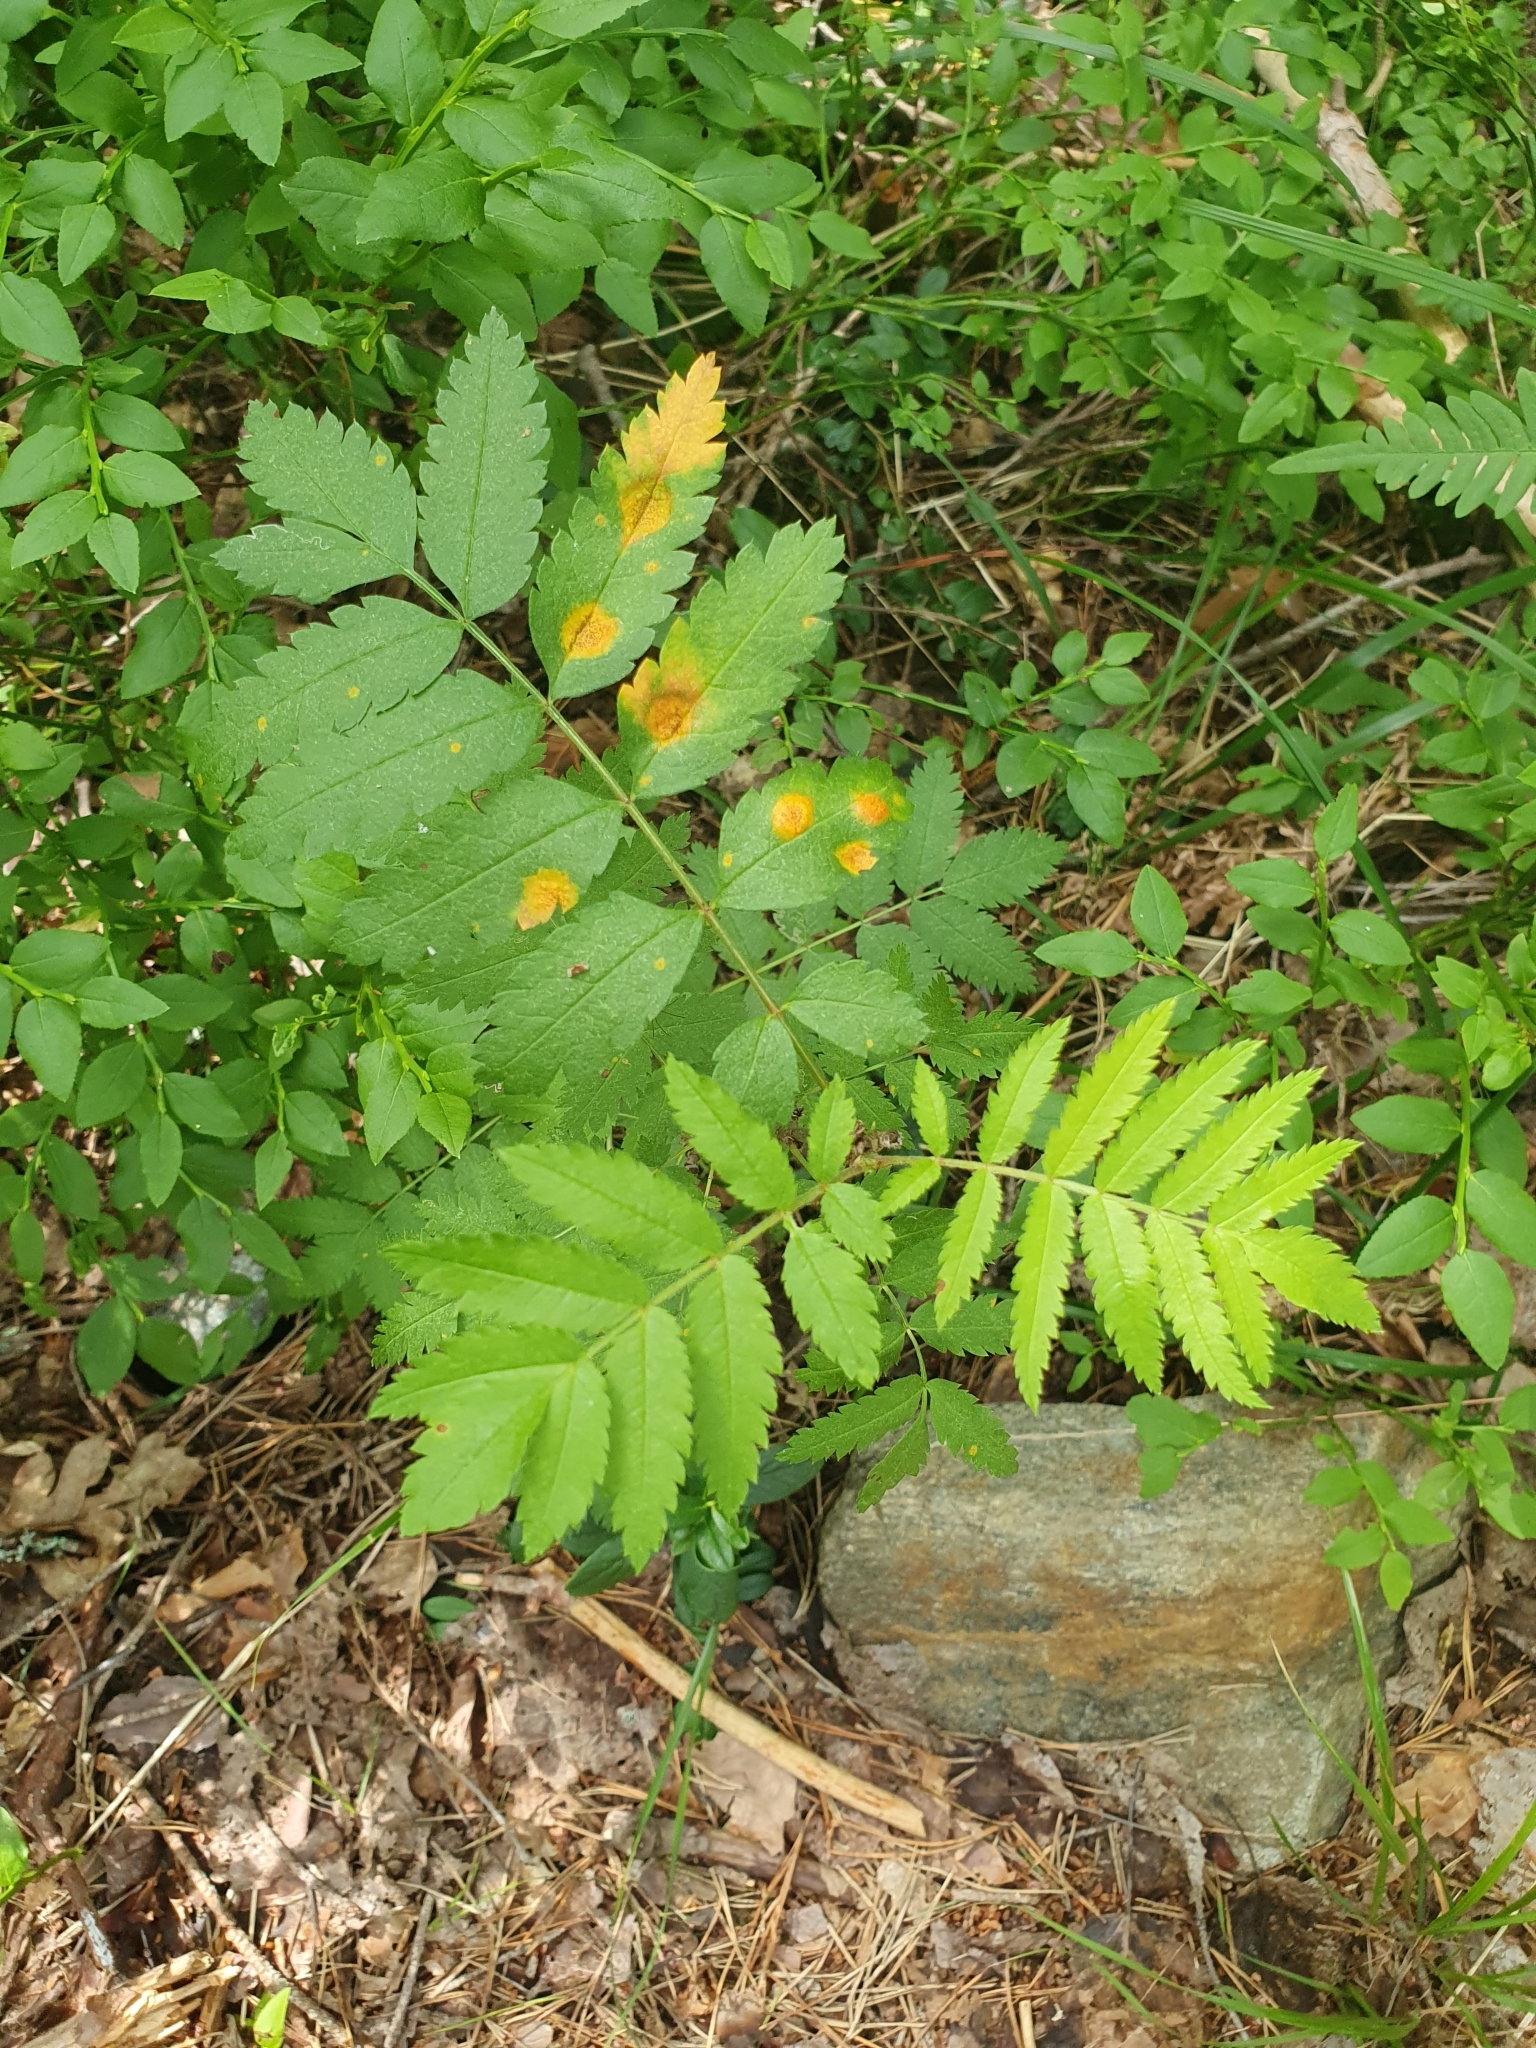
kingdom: Plantae
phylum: Tracheophyta
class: Magnoliopsida
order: Rosales
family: Rosaceae
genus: Sorbus
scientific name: Sorbus aucuparia
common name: Rowan
